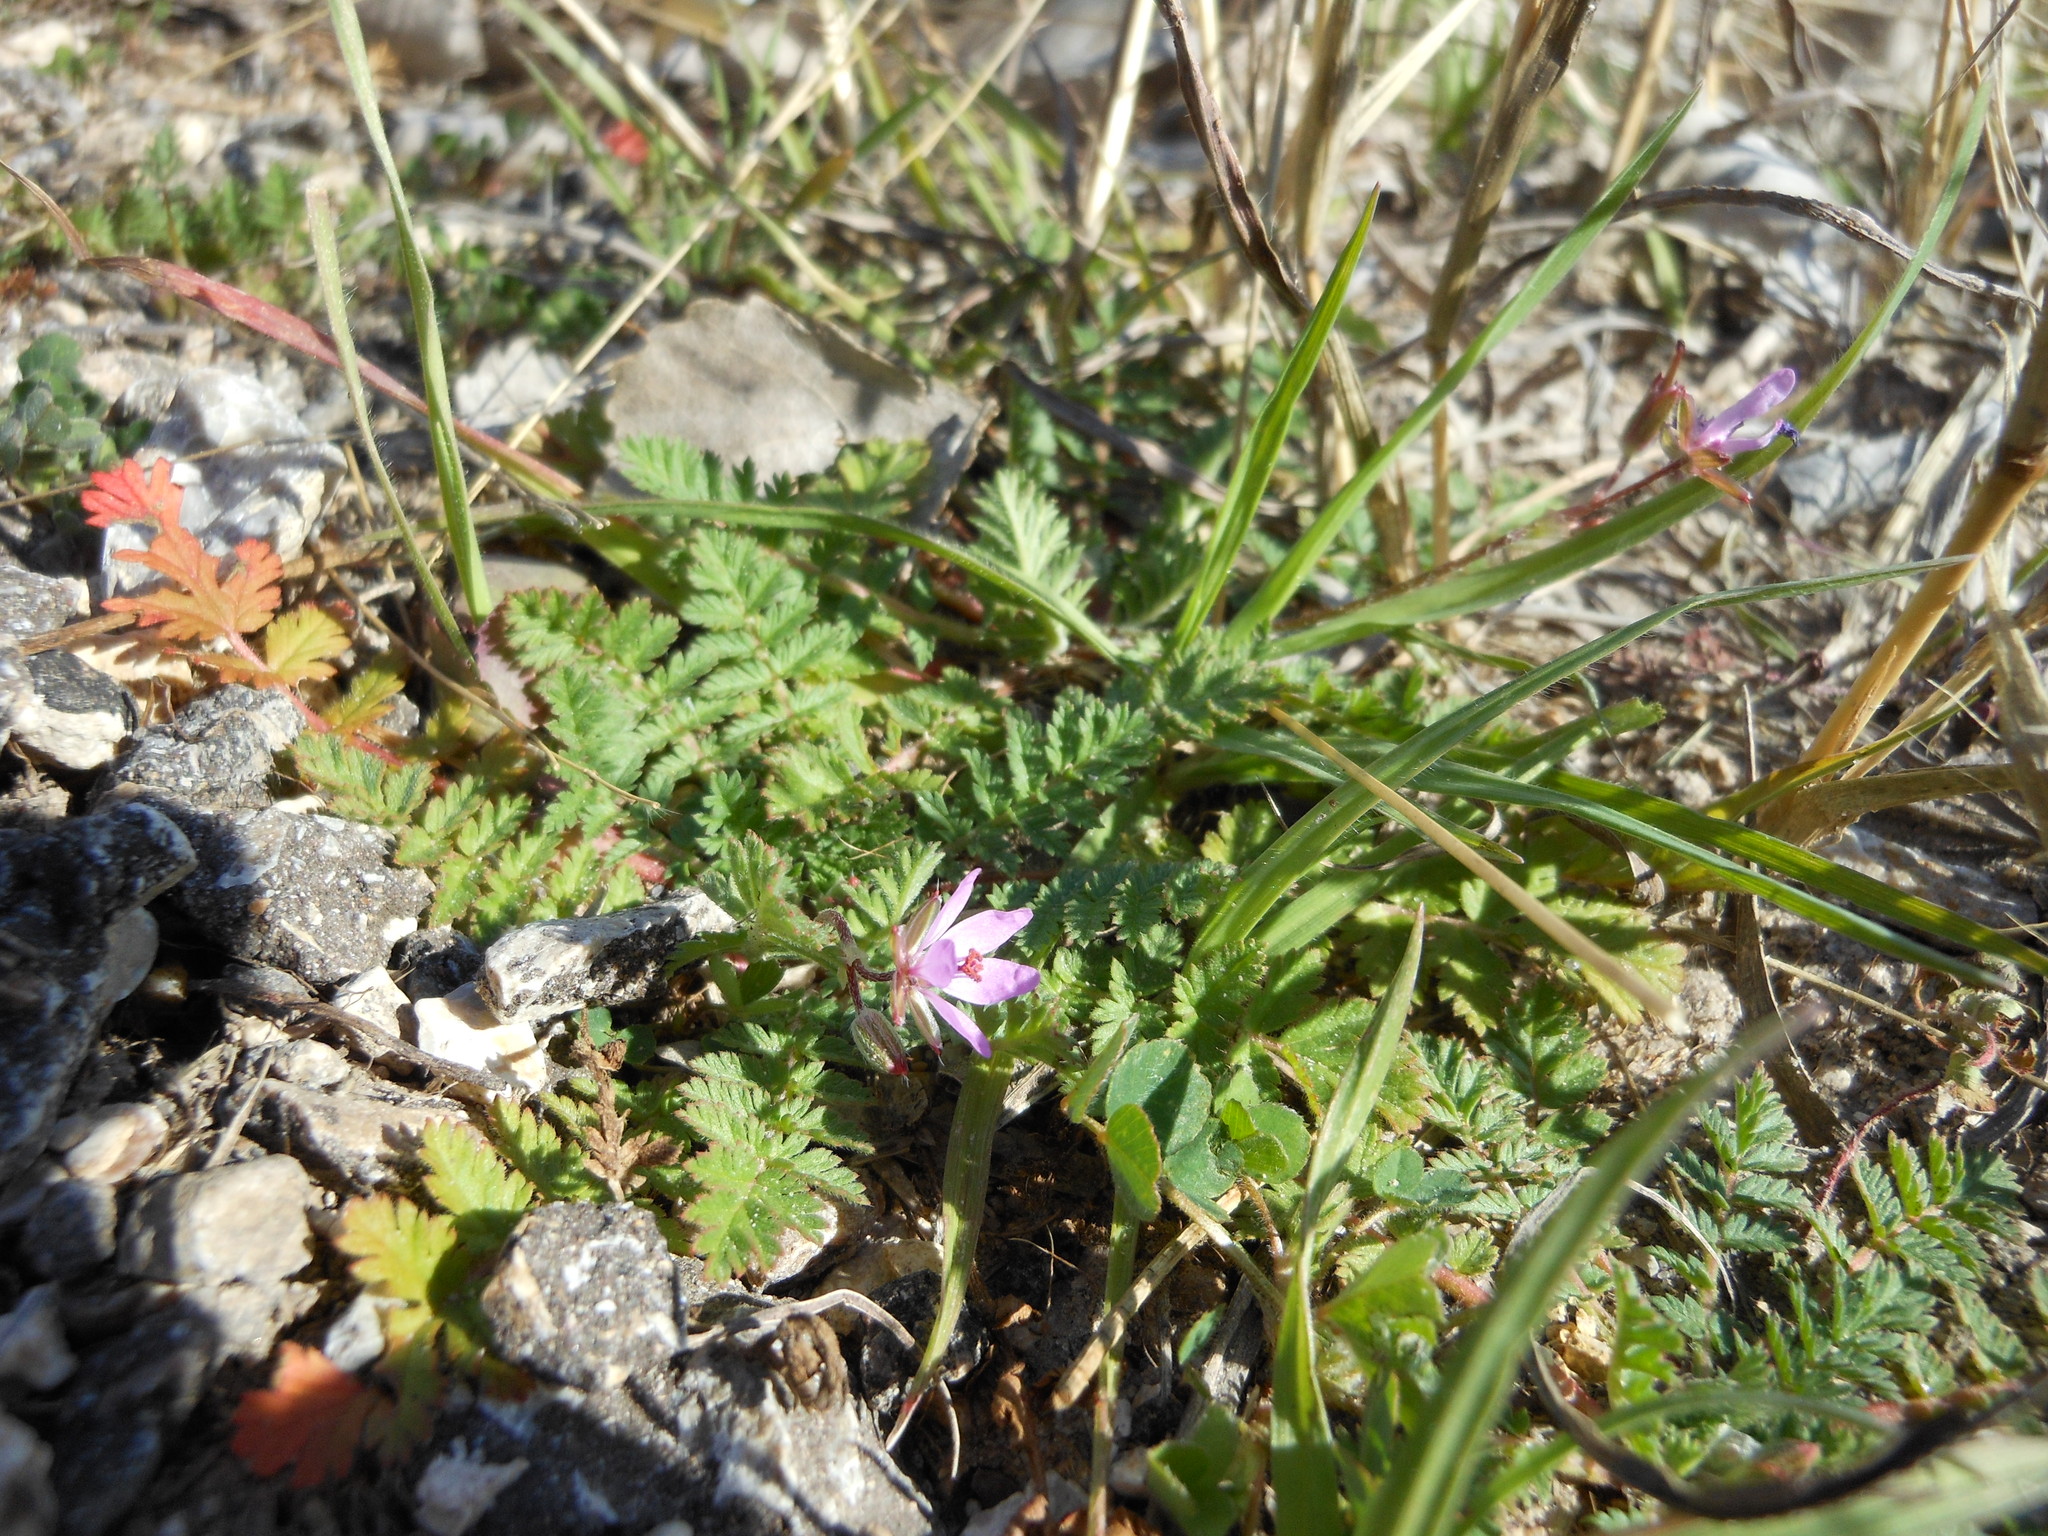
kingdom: Plantae
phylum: Tracheophyta
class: Magnoliopsida
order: Geraniales
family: Geraniaceae
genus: Erodium
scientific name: Erodium cicutarium
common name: Common stork's-bill
